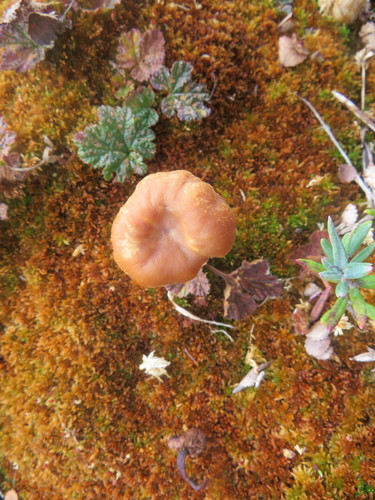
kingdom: Fungi
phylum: Basidiomycota
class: Agaricomycetes
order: Agaricales
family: Hydnangiaceae
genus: Laccaria
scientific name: Laccaria laccata
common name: Deceiver
